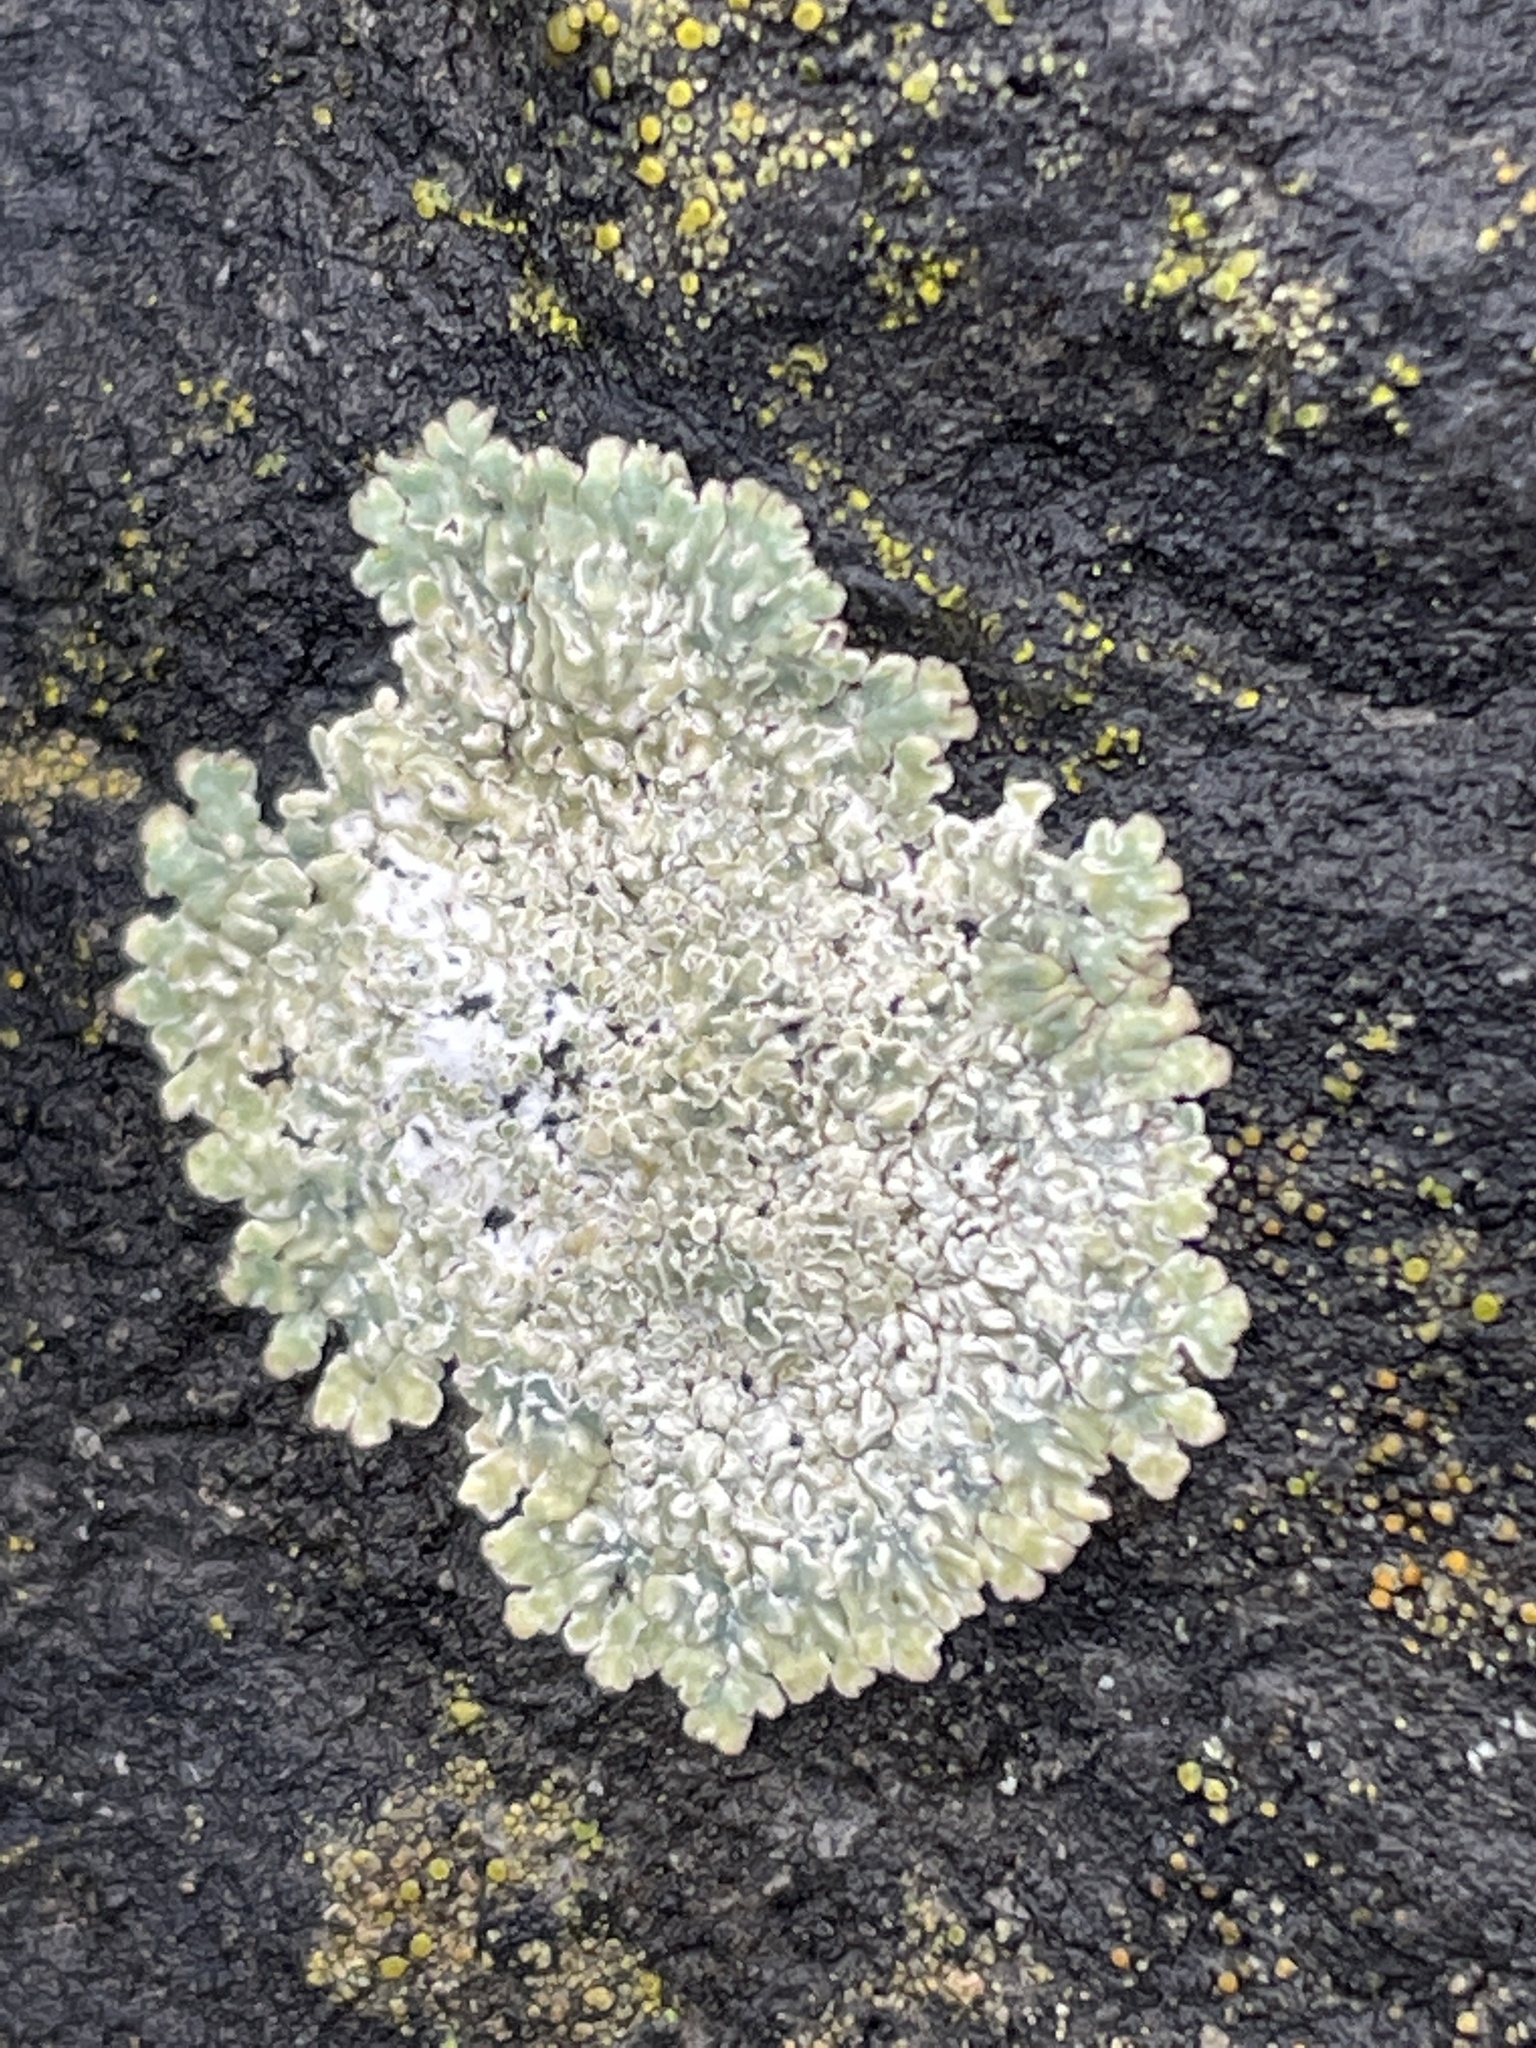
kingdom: Fungi
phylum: Ascomycota
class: Lecanoromycetes
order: Lecanorales
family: Lecanoraceae
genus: Protoparmeliopsis
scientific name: Protoparmeliopsis muralis
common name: Stonewall rim lichen
